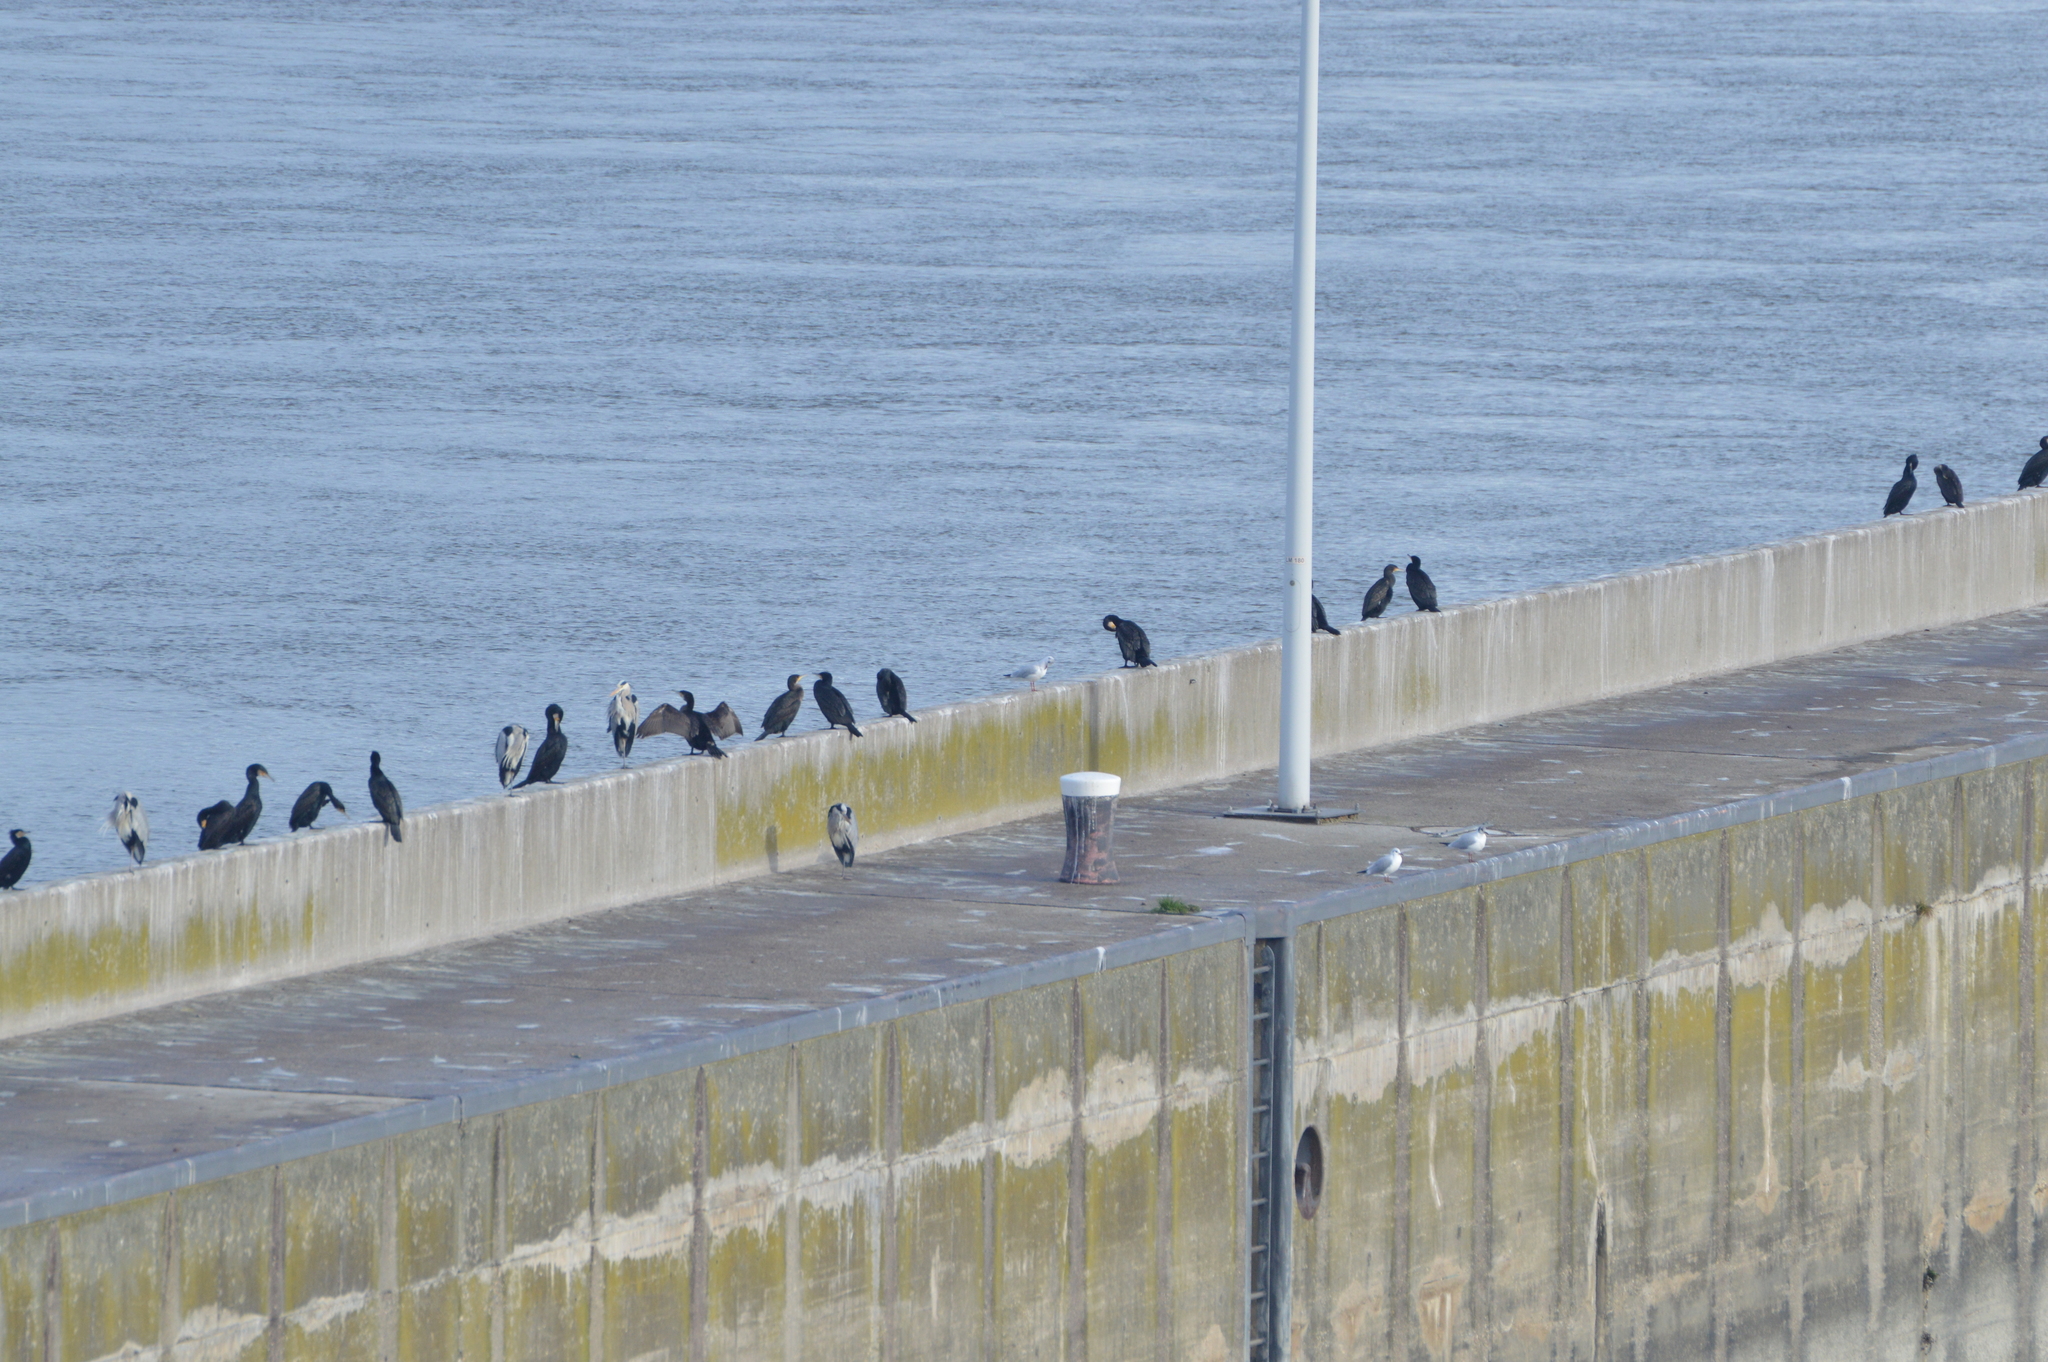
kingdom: Animalia
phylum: Chordata
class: Aves
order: Pelecaniformes
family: Ardeidae
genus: Ardea
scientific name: Ardea cinerea
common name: Grey heron
